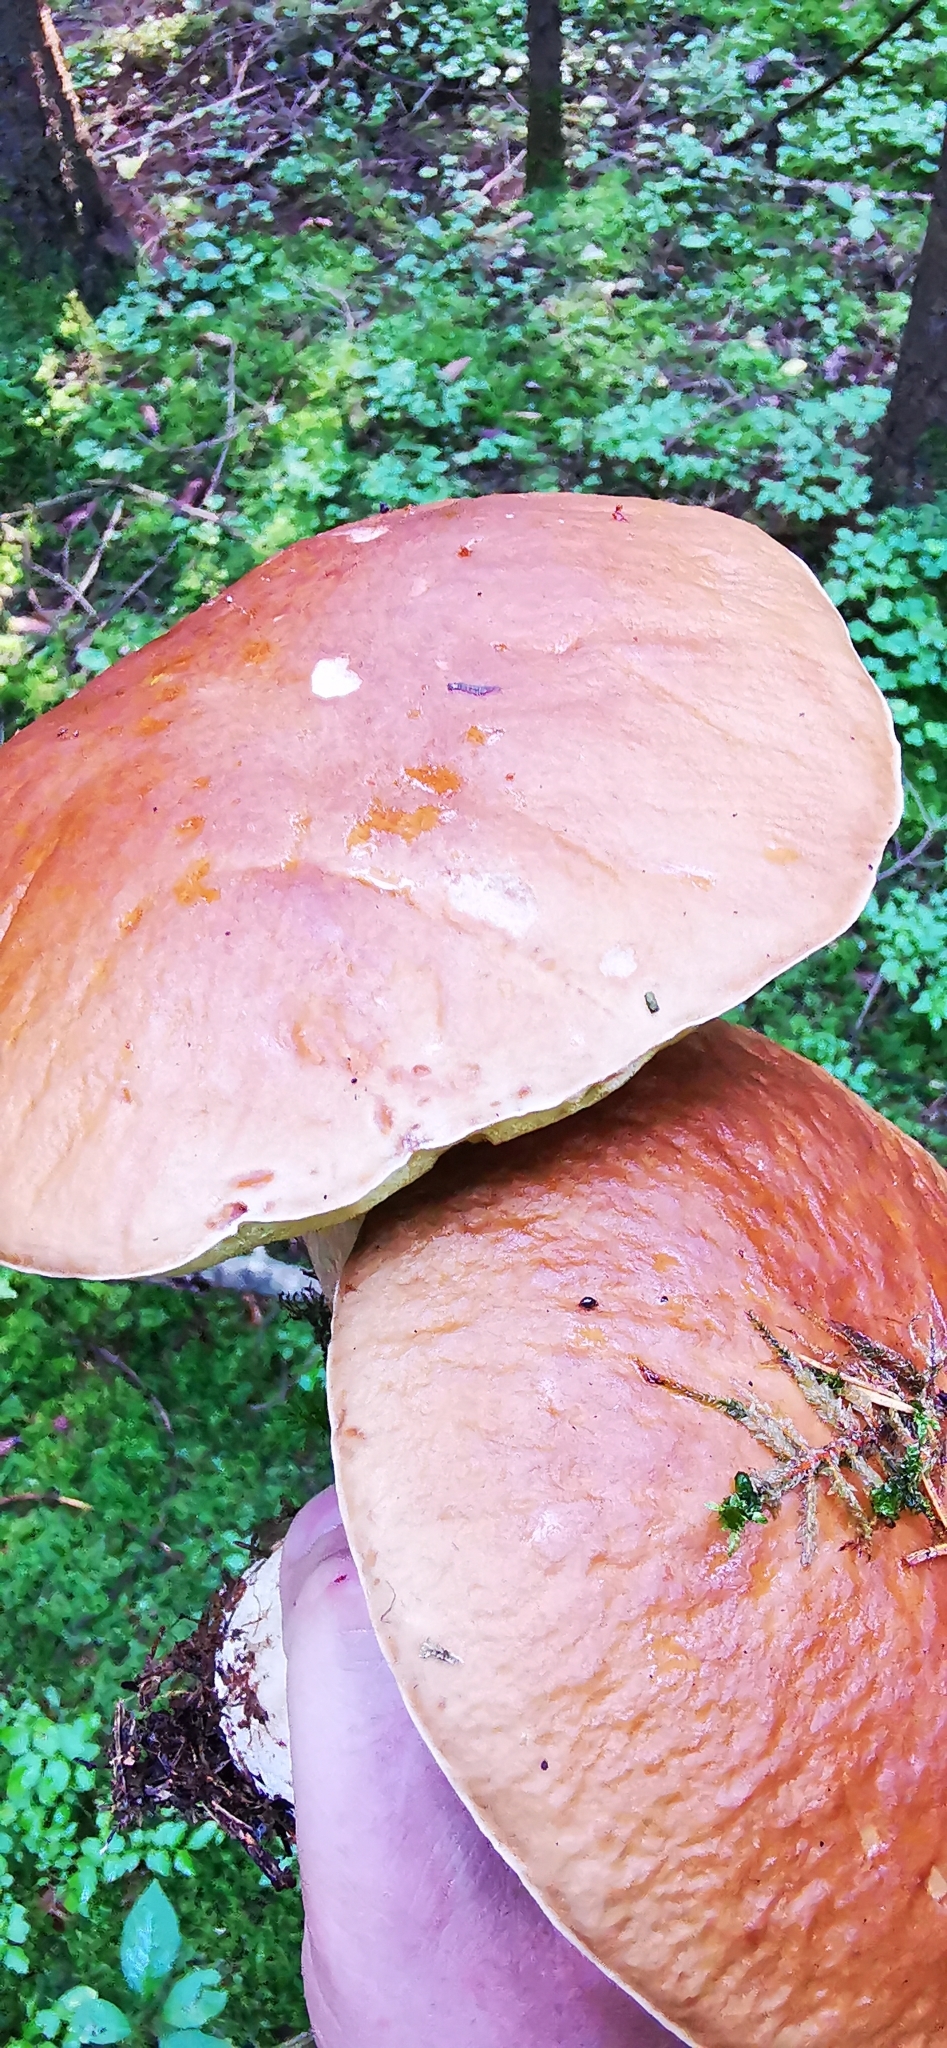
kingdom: Fungi
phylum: Basidiomycota
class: Agaricomycetes
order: Boletales
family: Boletaceae
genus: Boletus
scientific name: Boletus edulis
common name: Cep
